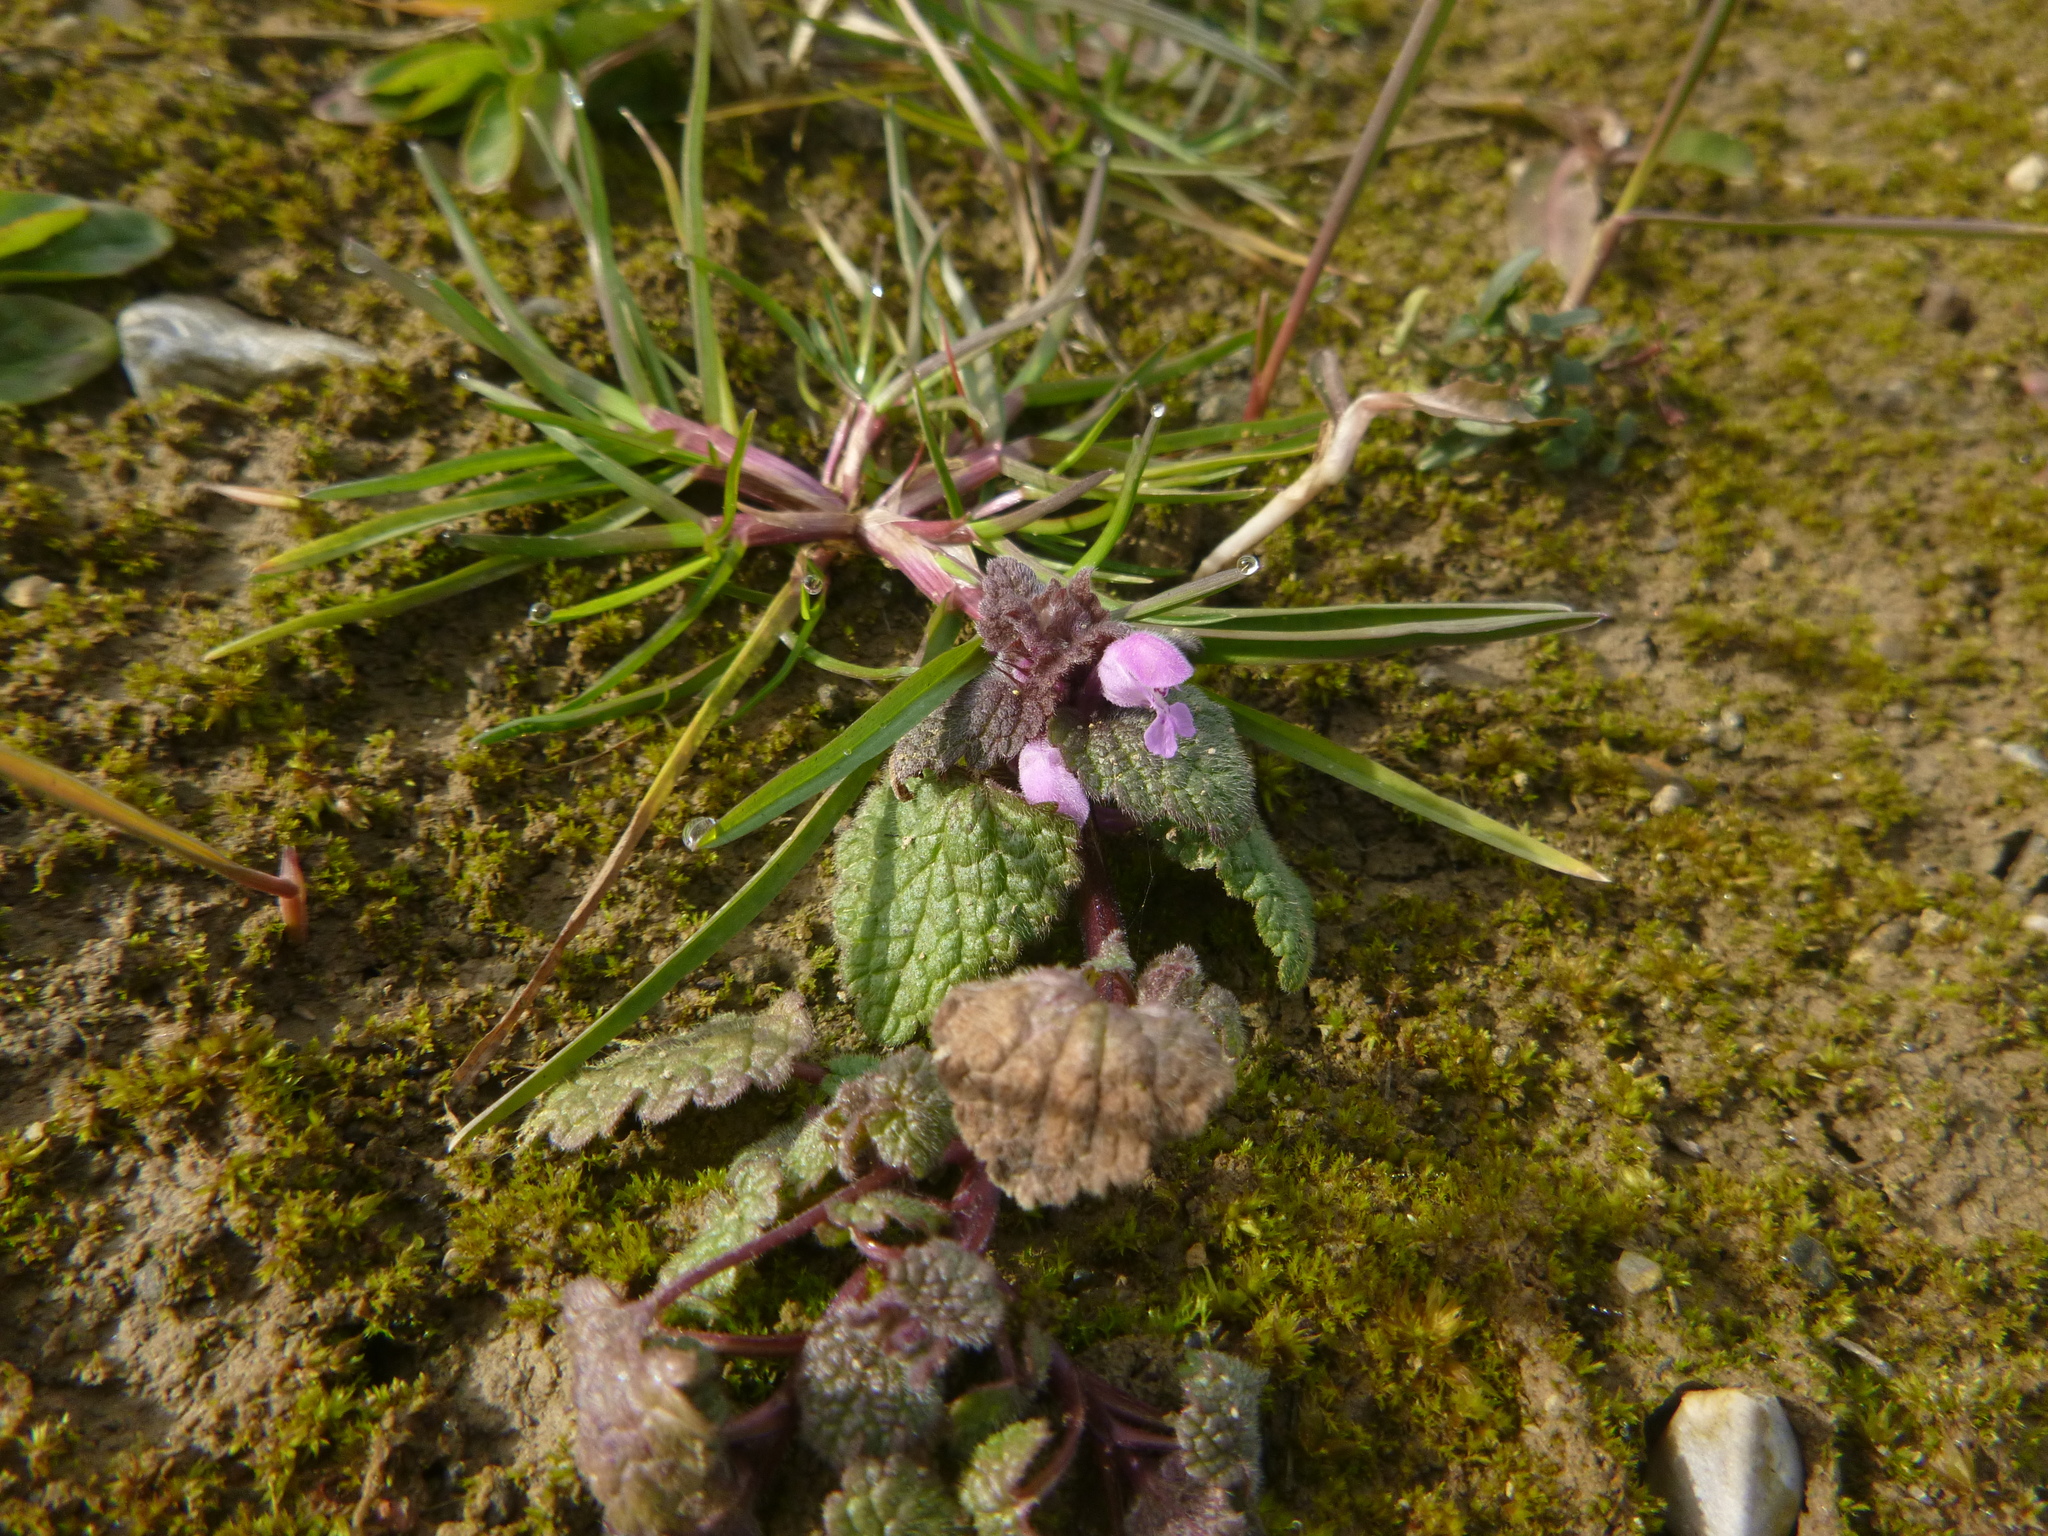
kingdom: Plantae
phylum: Tracheophyta
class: Magnoliopsida
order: Lamiales
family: Lamiaceae
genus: Lamium
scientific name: Lamium purpureum
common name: Red dead-nettle
